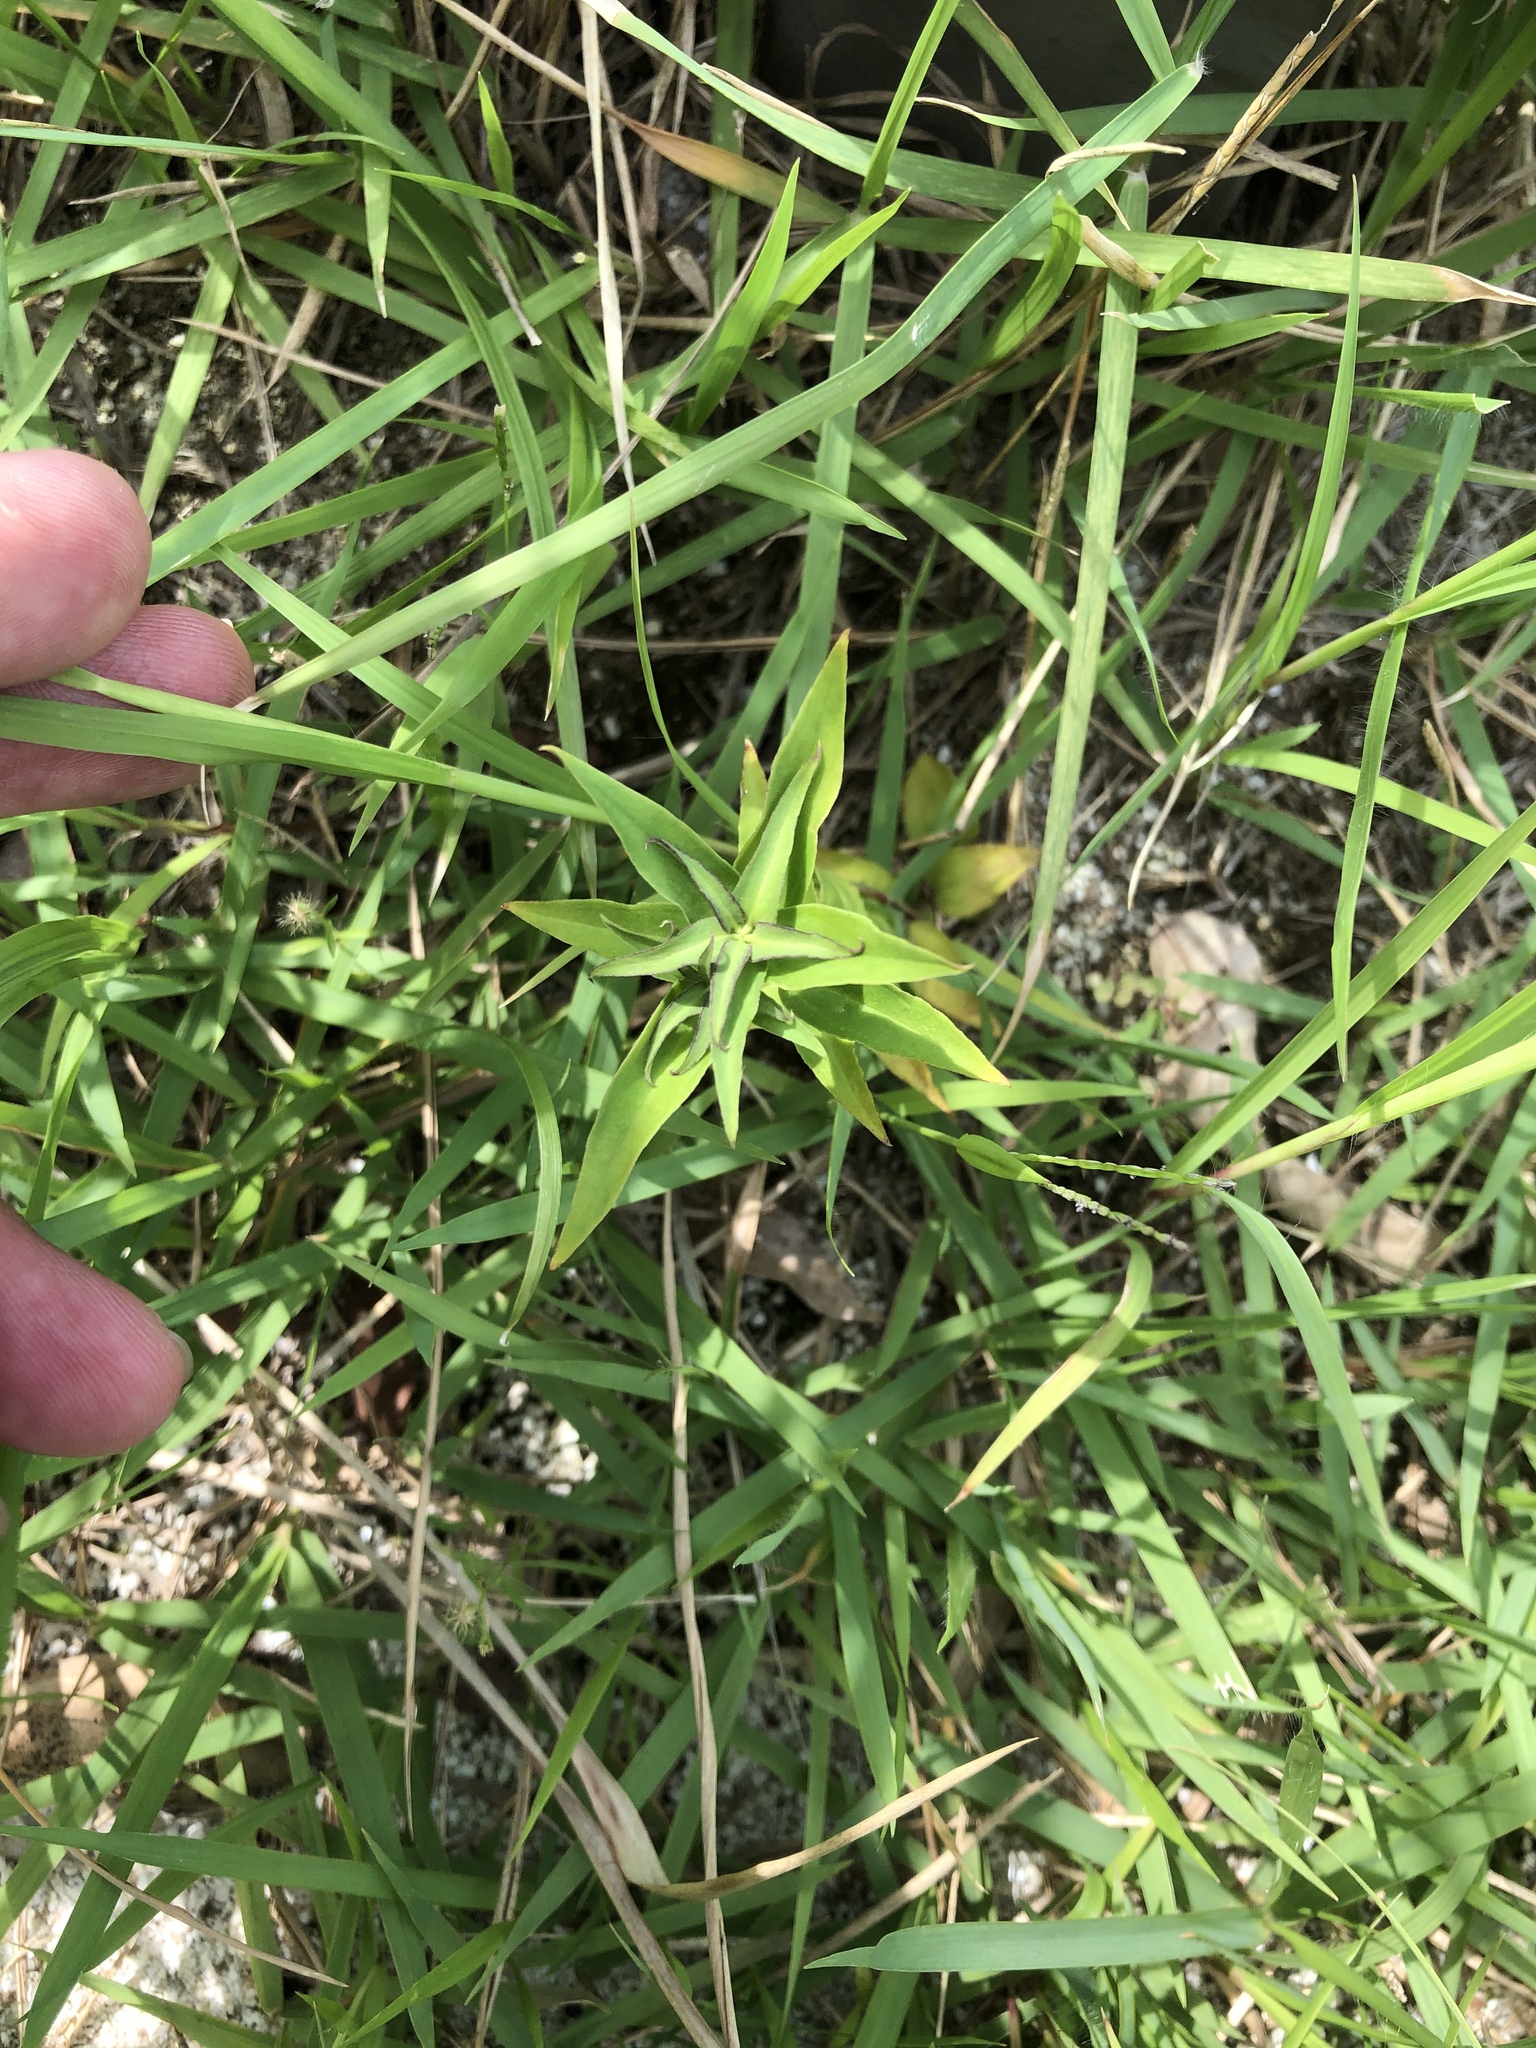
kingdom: Plantae
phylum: Tracheophyta
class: Magnoliopsida
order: Gentianales
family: Gentianaceae
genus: Gentiana
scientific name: Gentiana scabra
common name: Scabrous gentian
